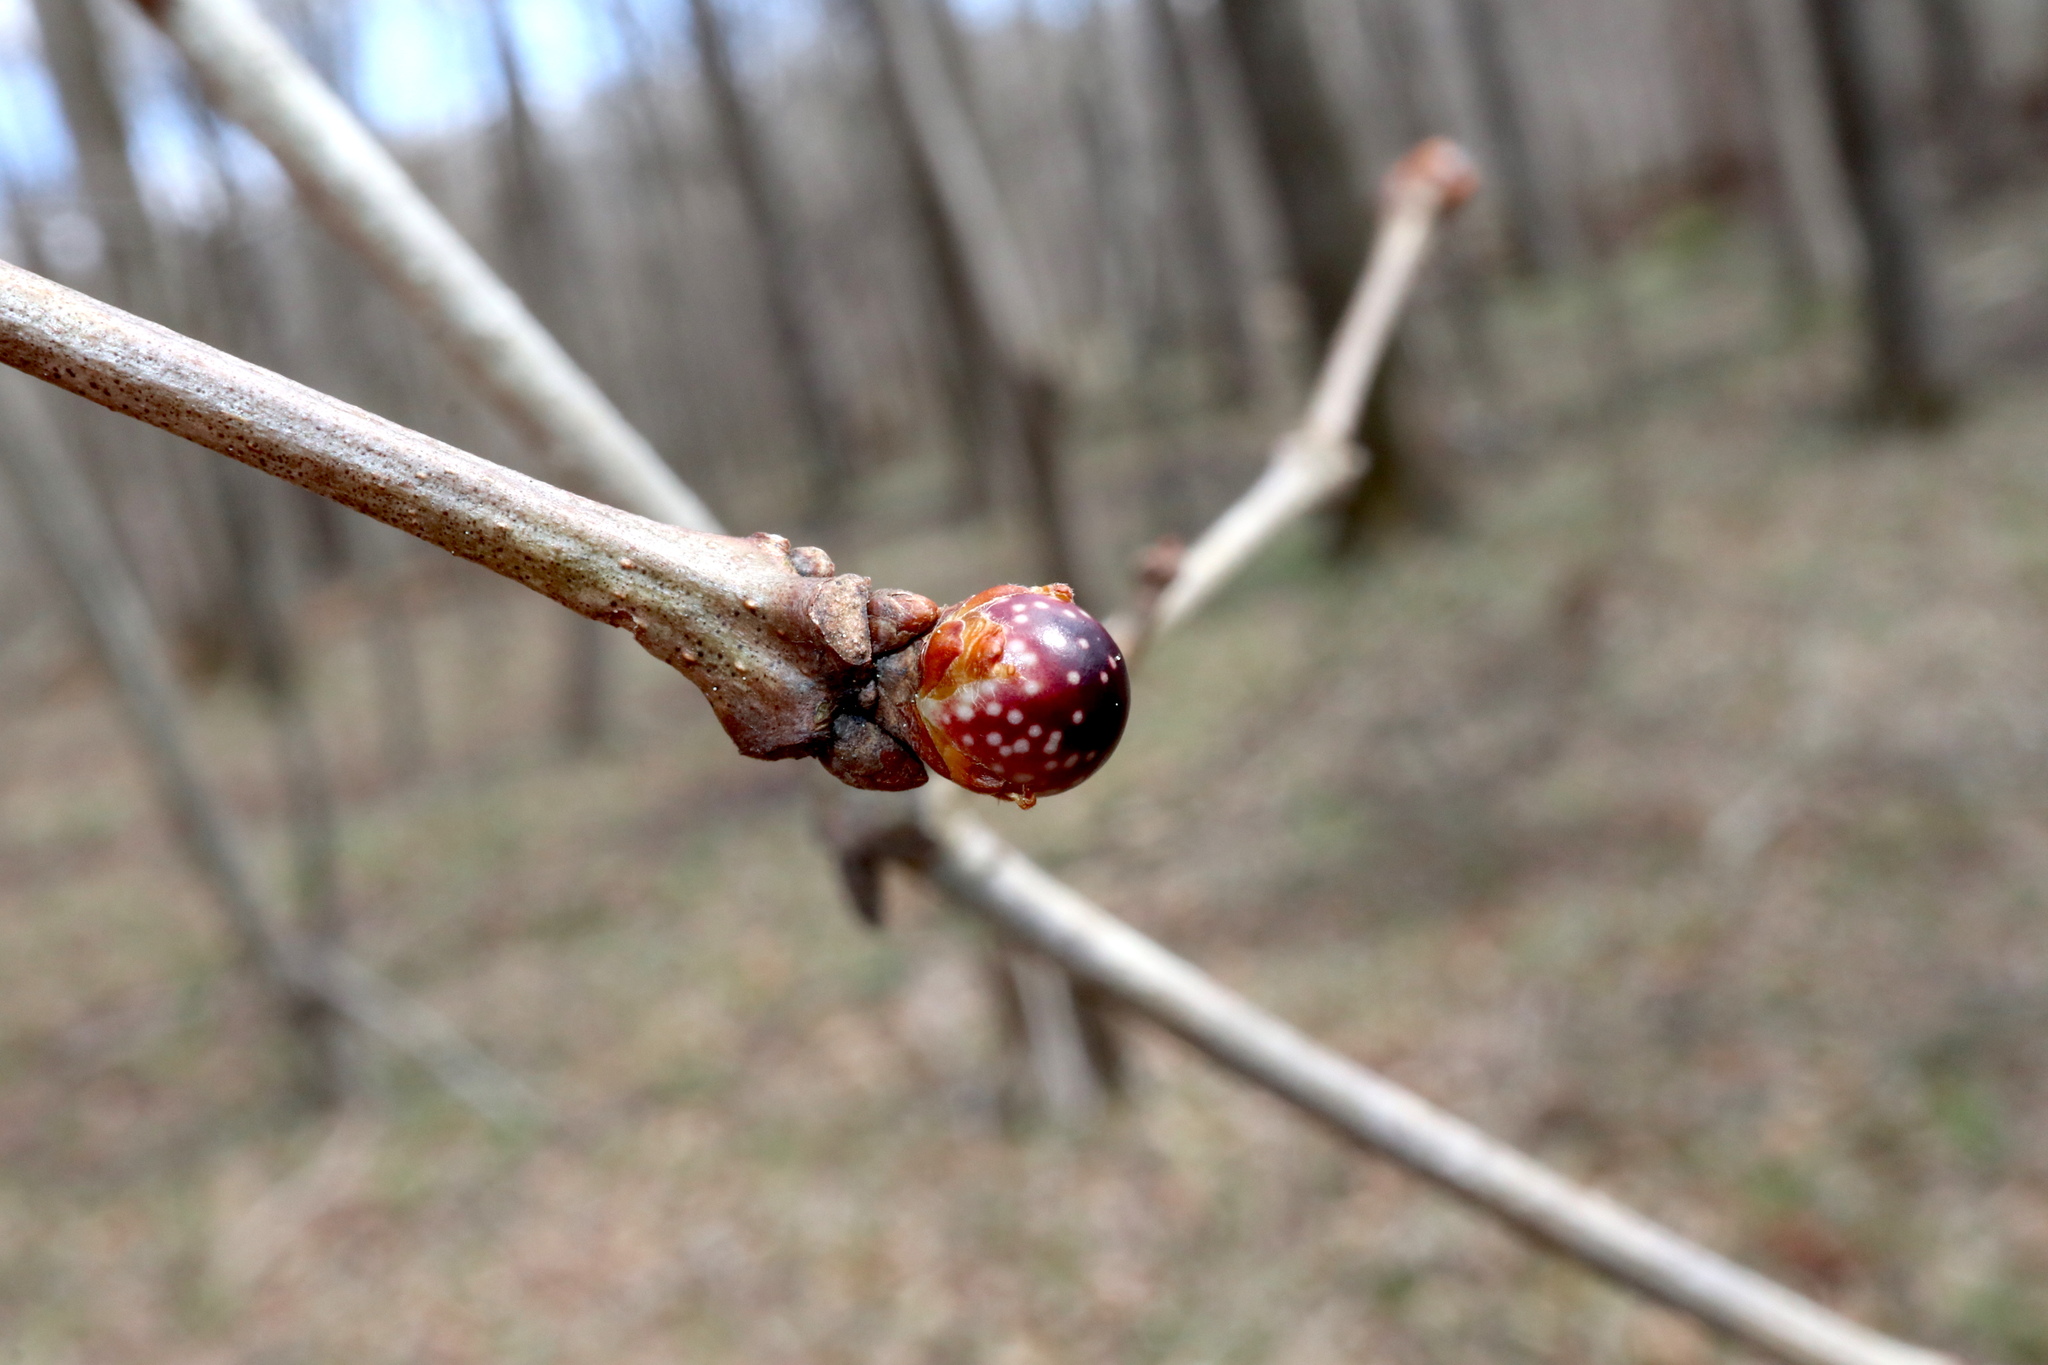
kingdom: Animalia
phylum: Arthropoda
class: Insecta
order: Hymenoptera
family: Cynipidae
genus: Andricus
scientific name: Andricus
